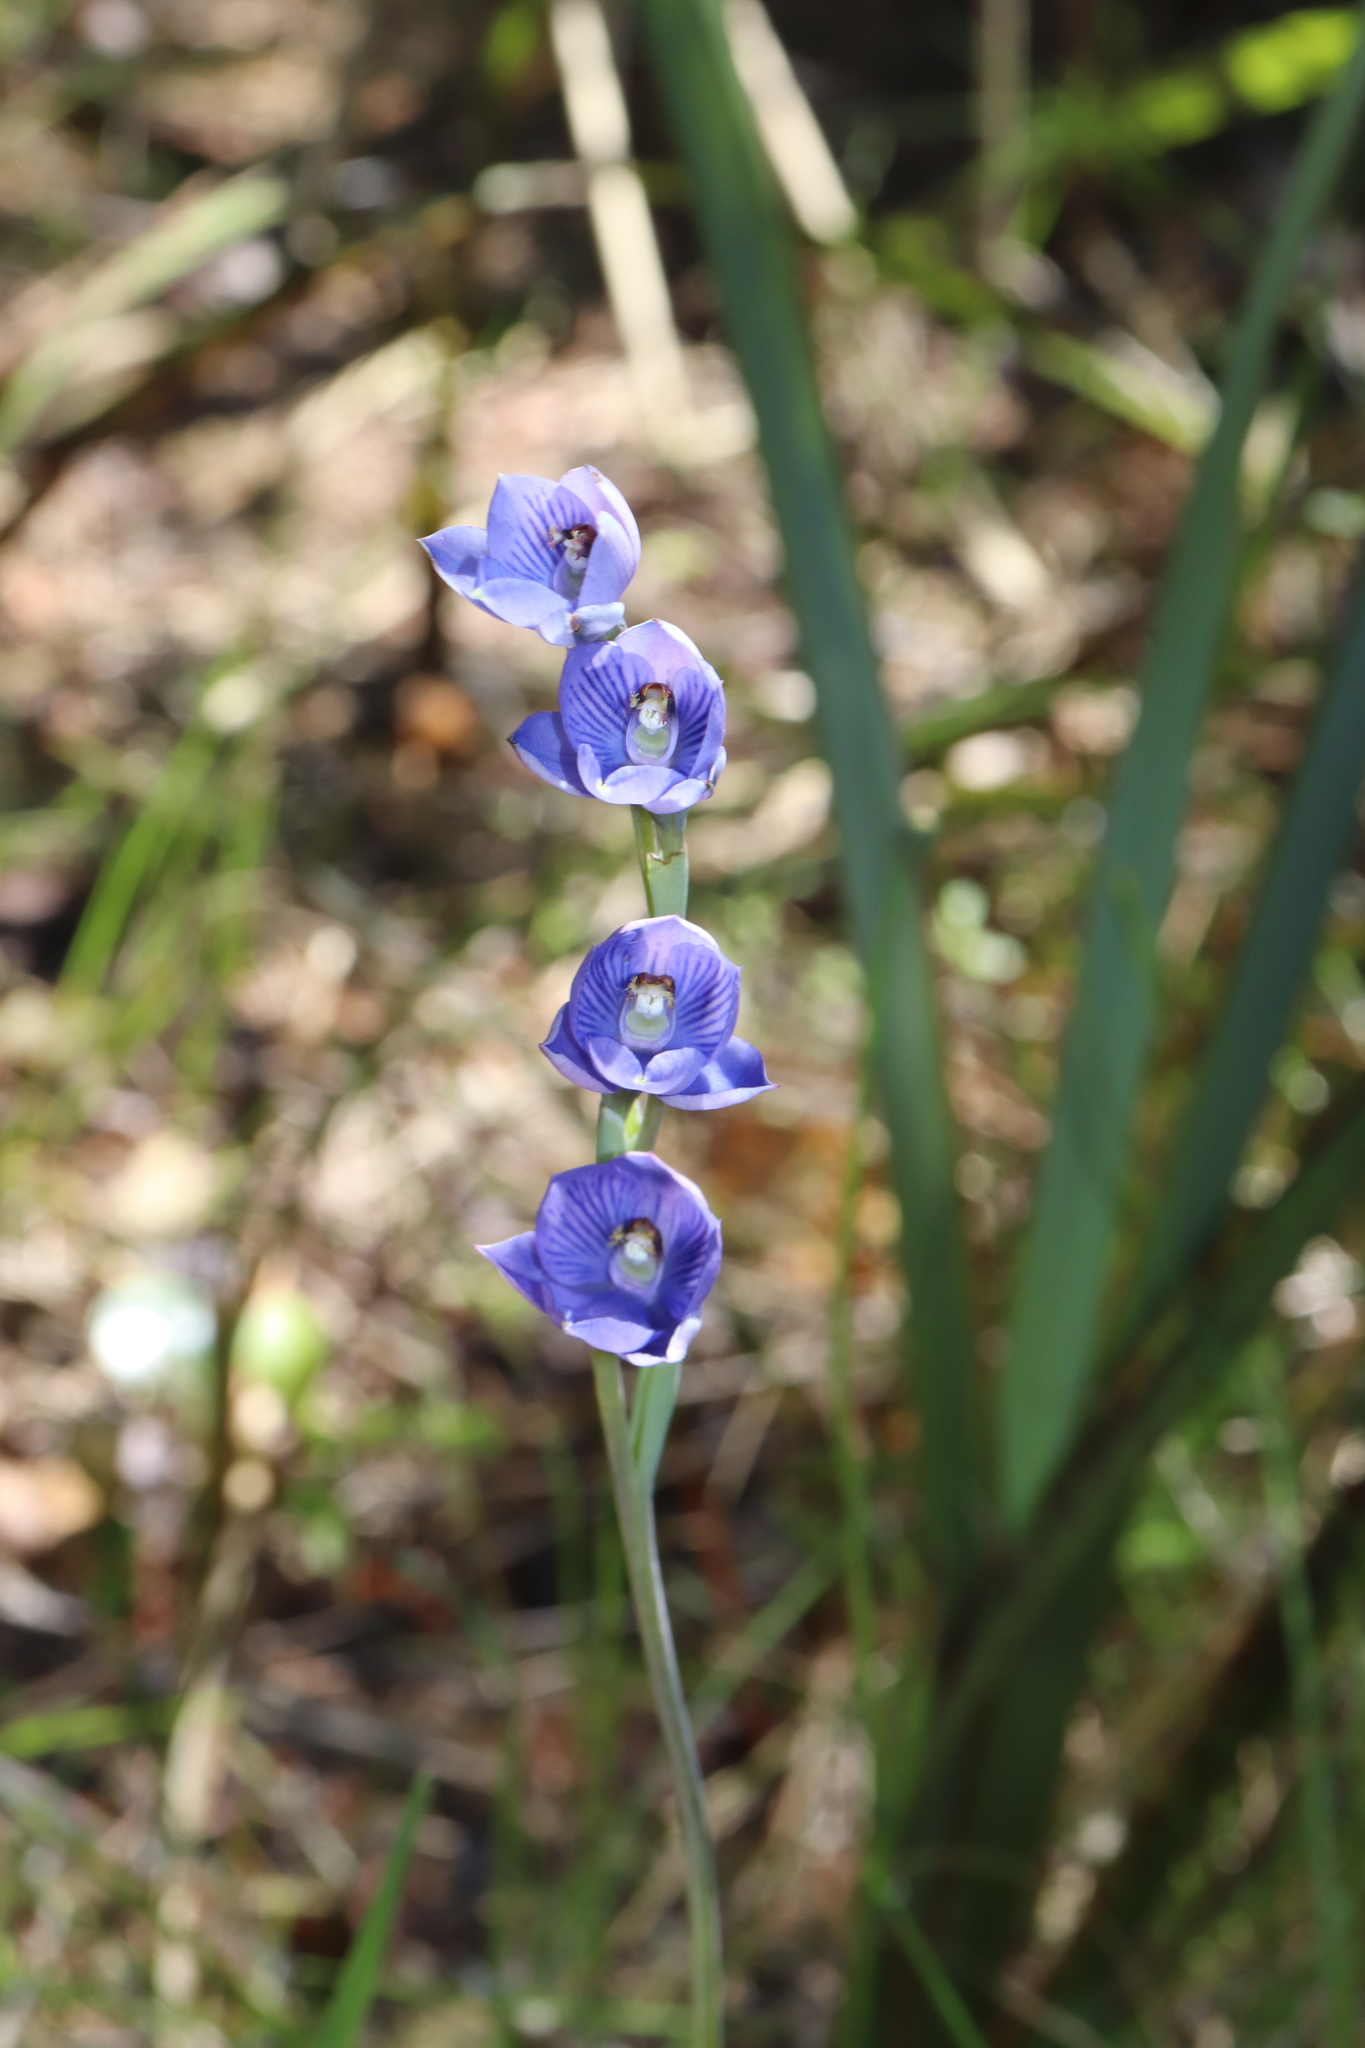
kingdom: Plantae
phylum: Tracheophyta
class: Liliopsida
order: Asparagales
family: Orchidaceae
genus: Thelymitra
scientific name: Thelymitra pulchella
